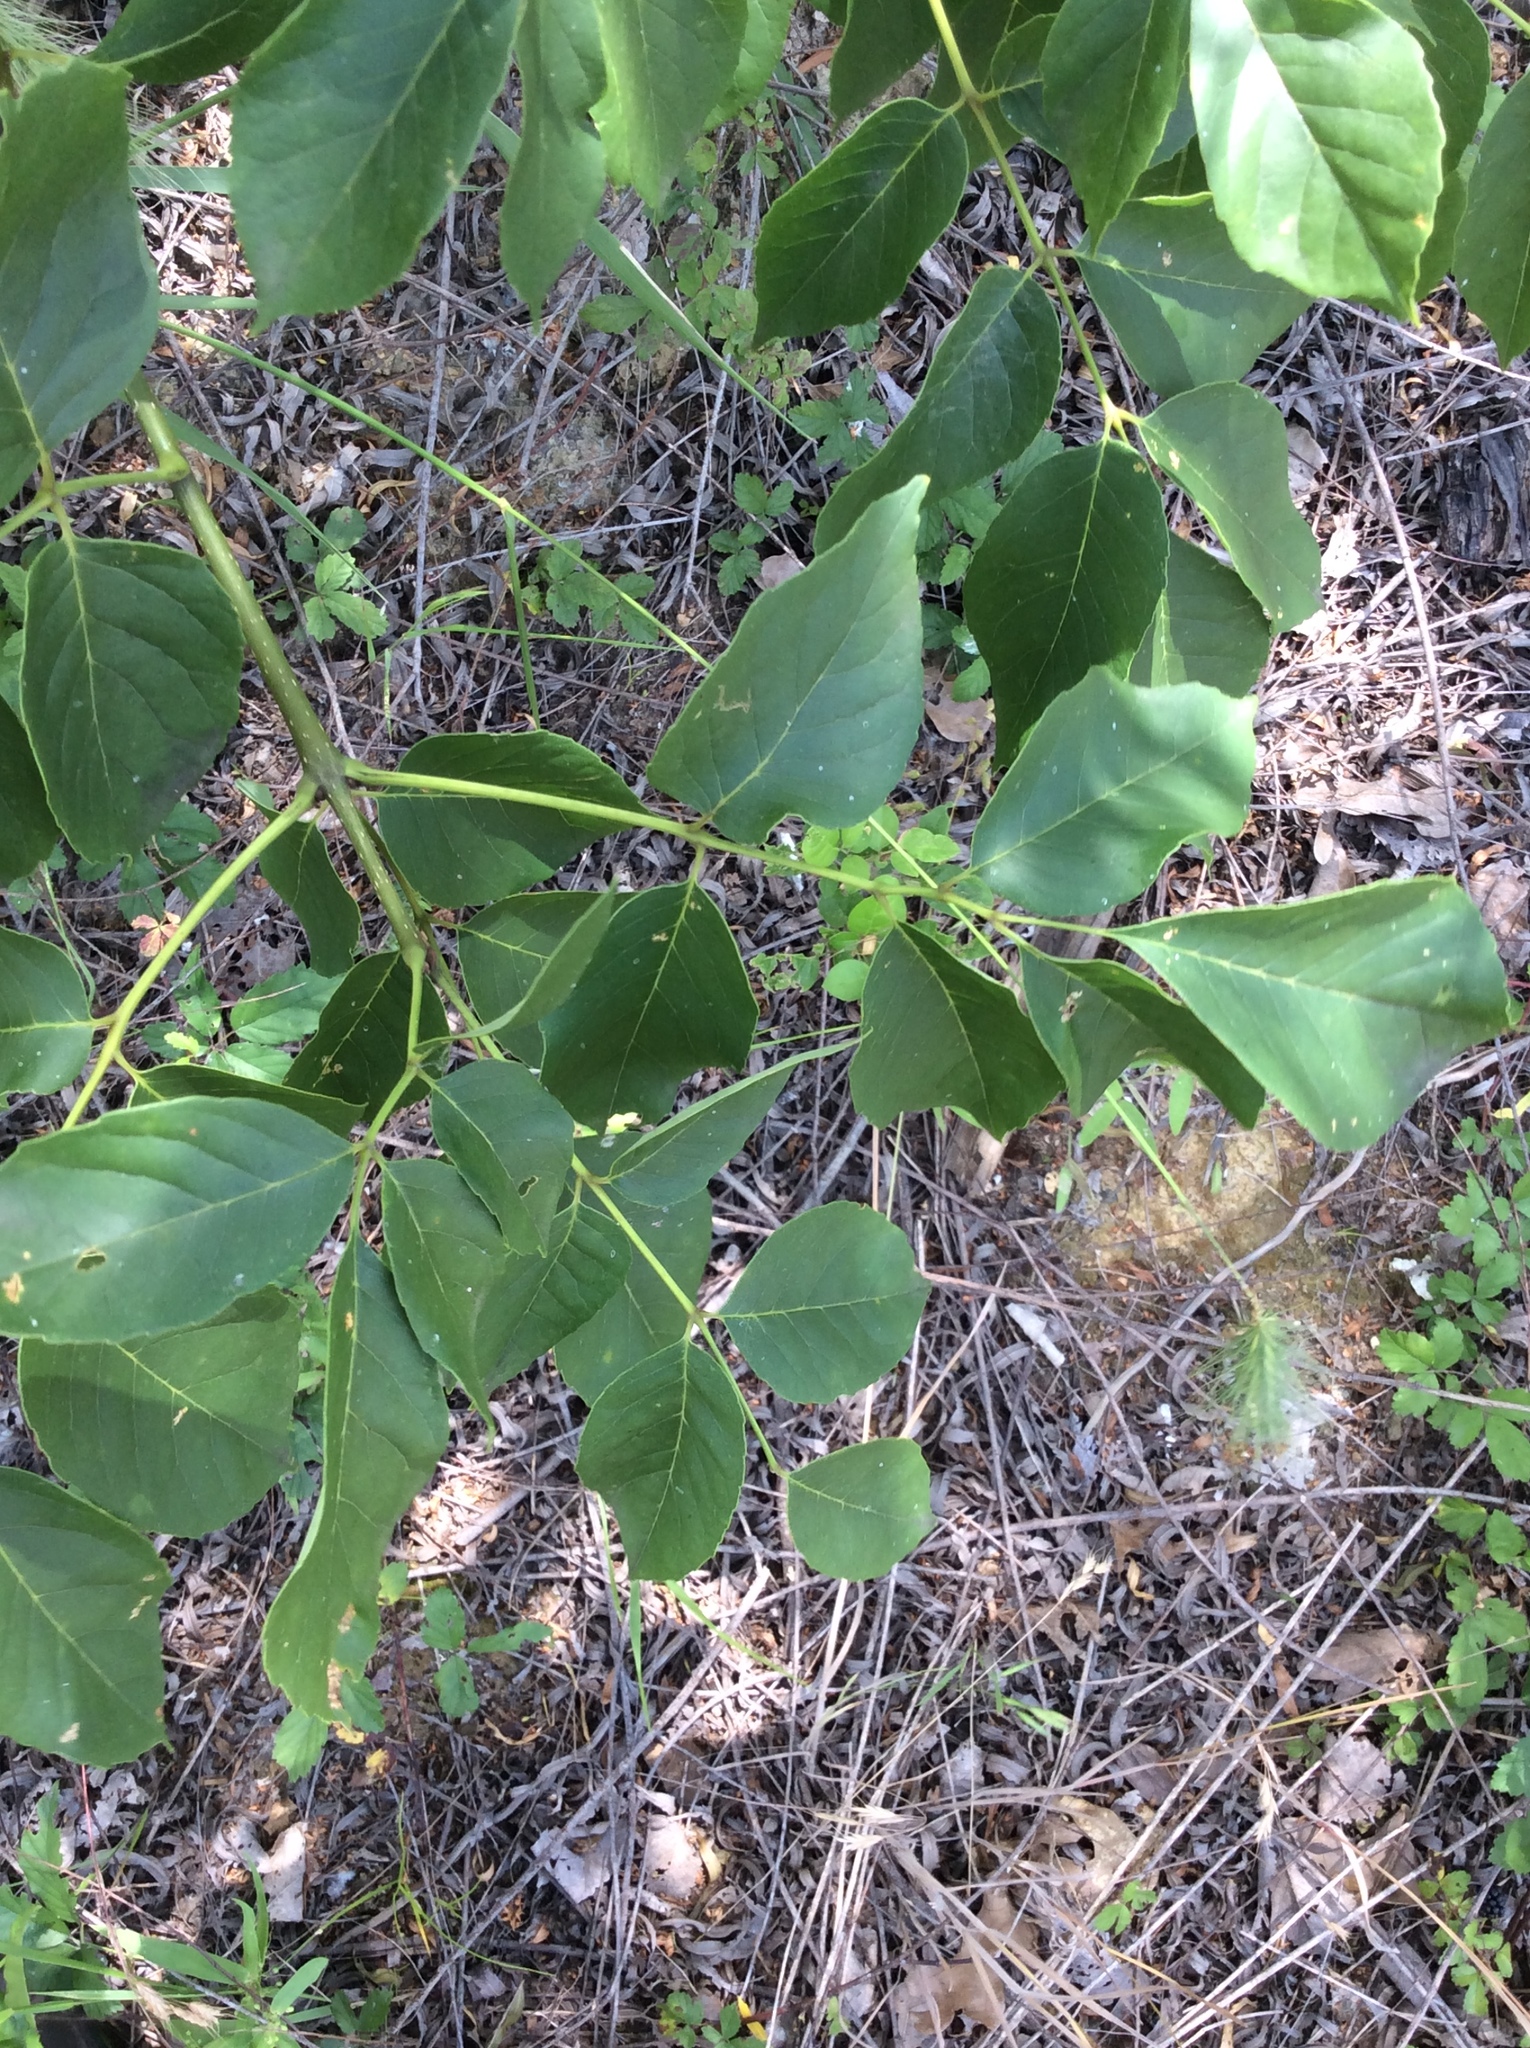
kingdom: Plantae
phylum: Tracheophyta
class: Magnoliopsida
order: Malpighiales
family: Salicaceae
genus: Salix
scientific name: Salix nigra
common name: Black willow
